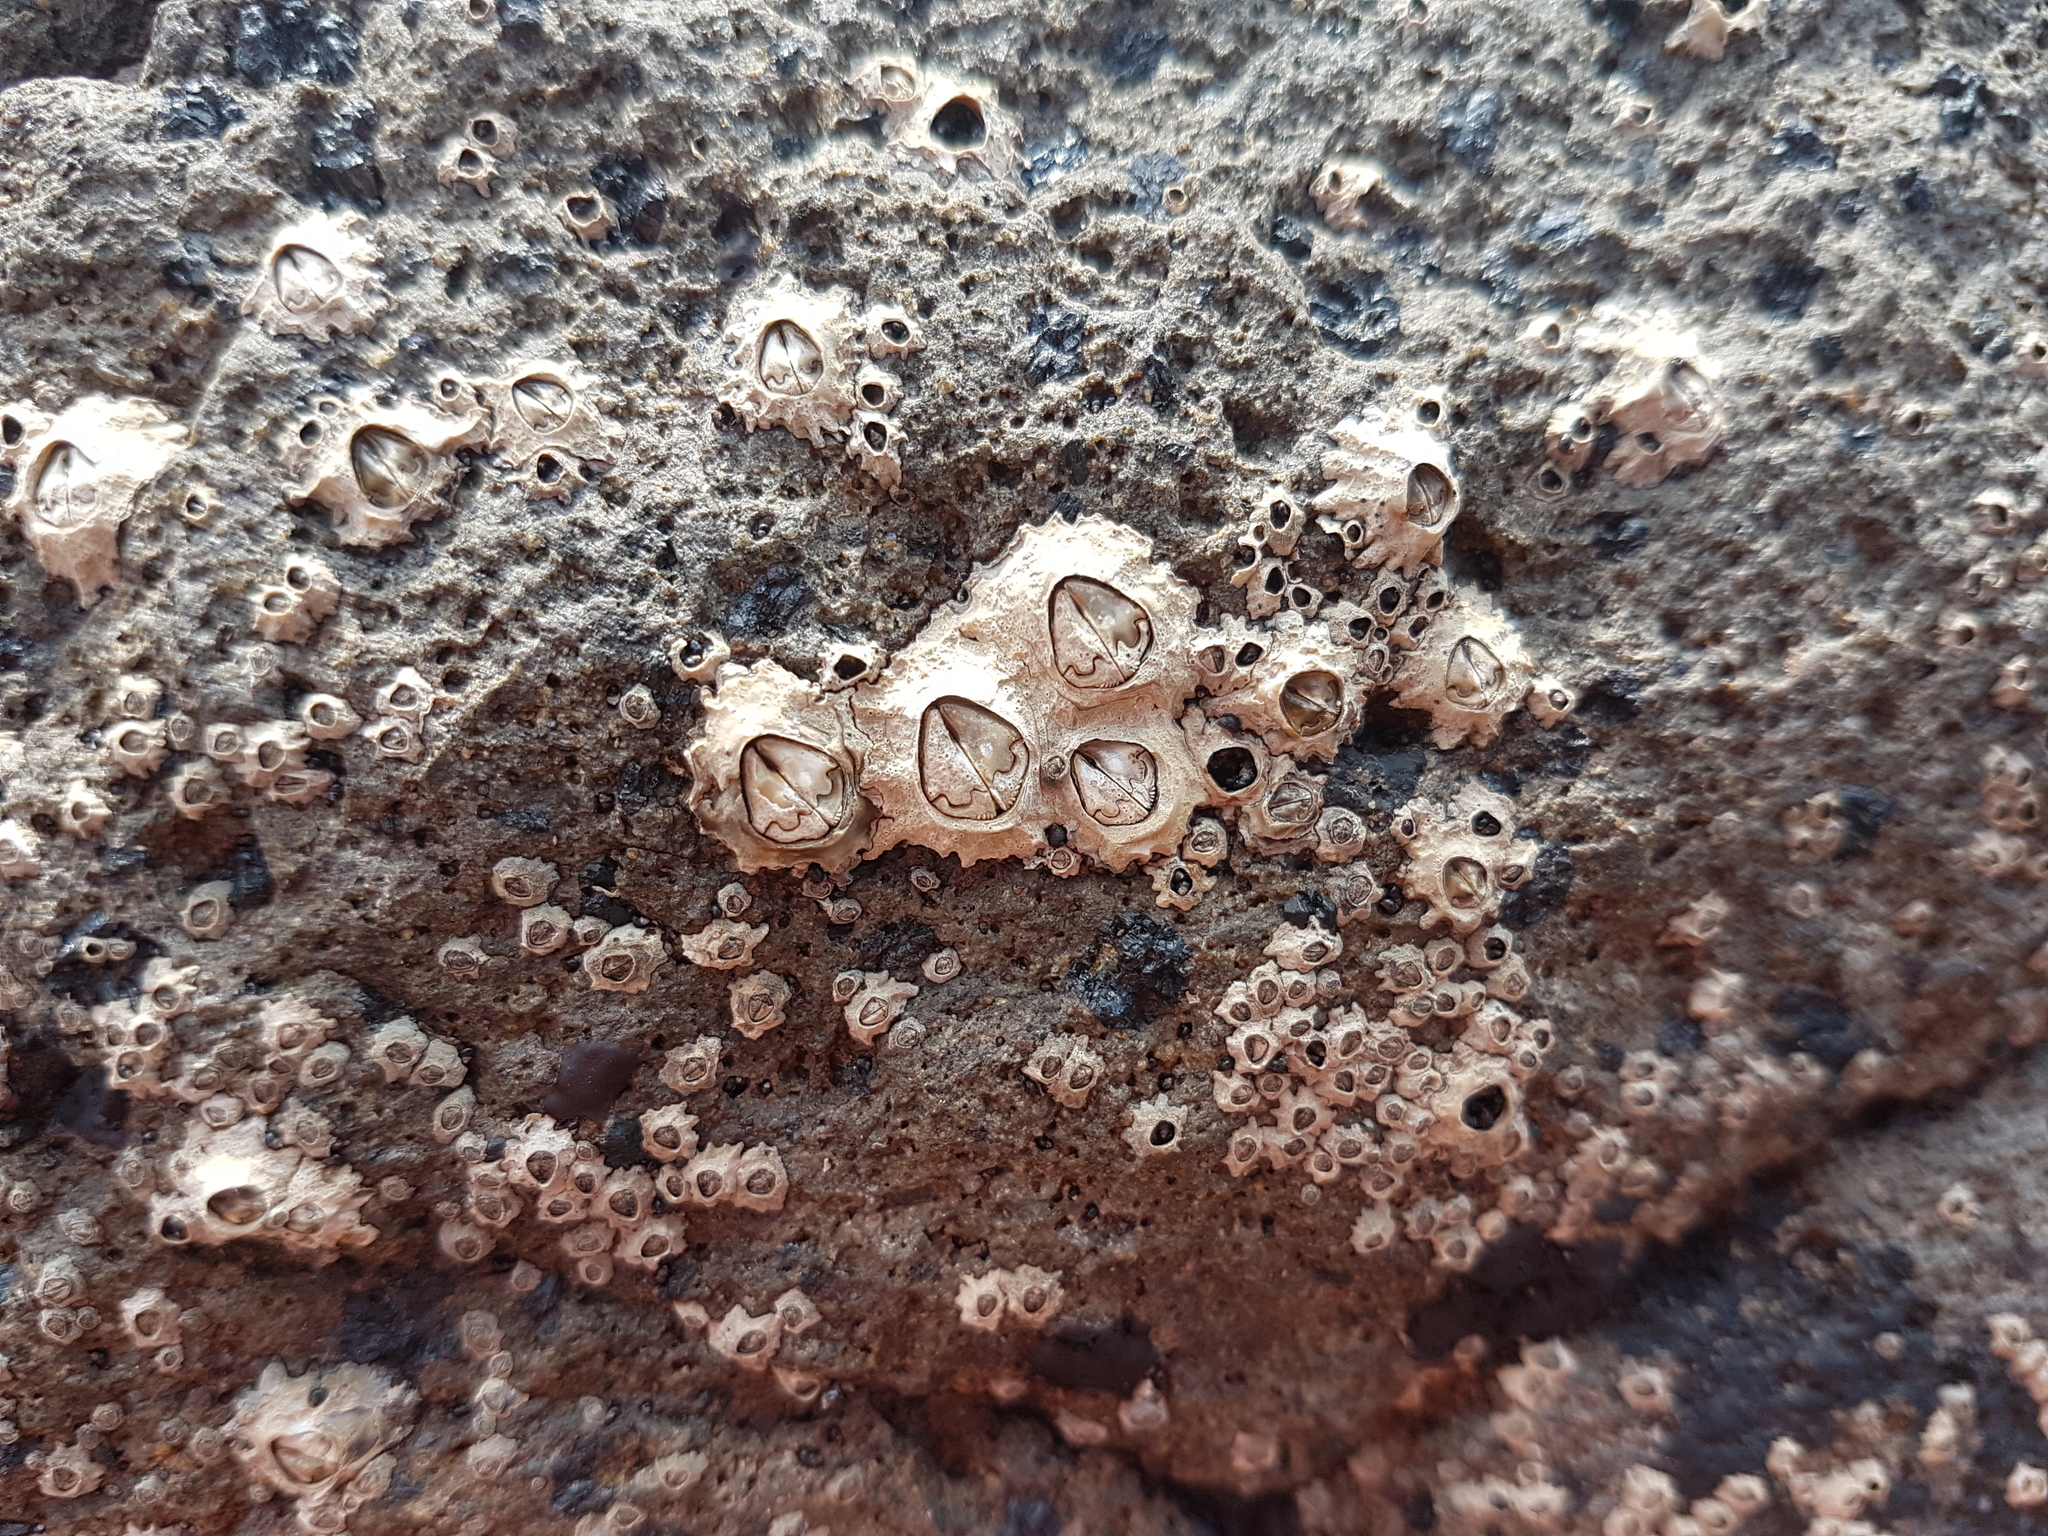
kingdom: Animalia
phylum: Arthropoda
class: Maxillopoda
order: Sessilia
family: Chthamalidae
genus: Chamaesipho
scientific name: Chamaesipho brunnea
